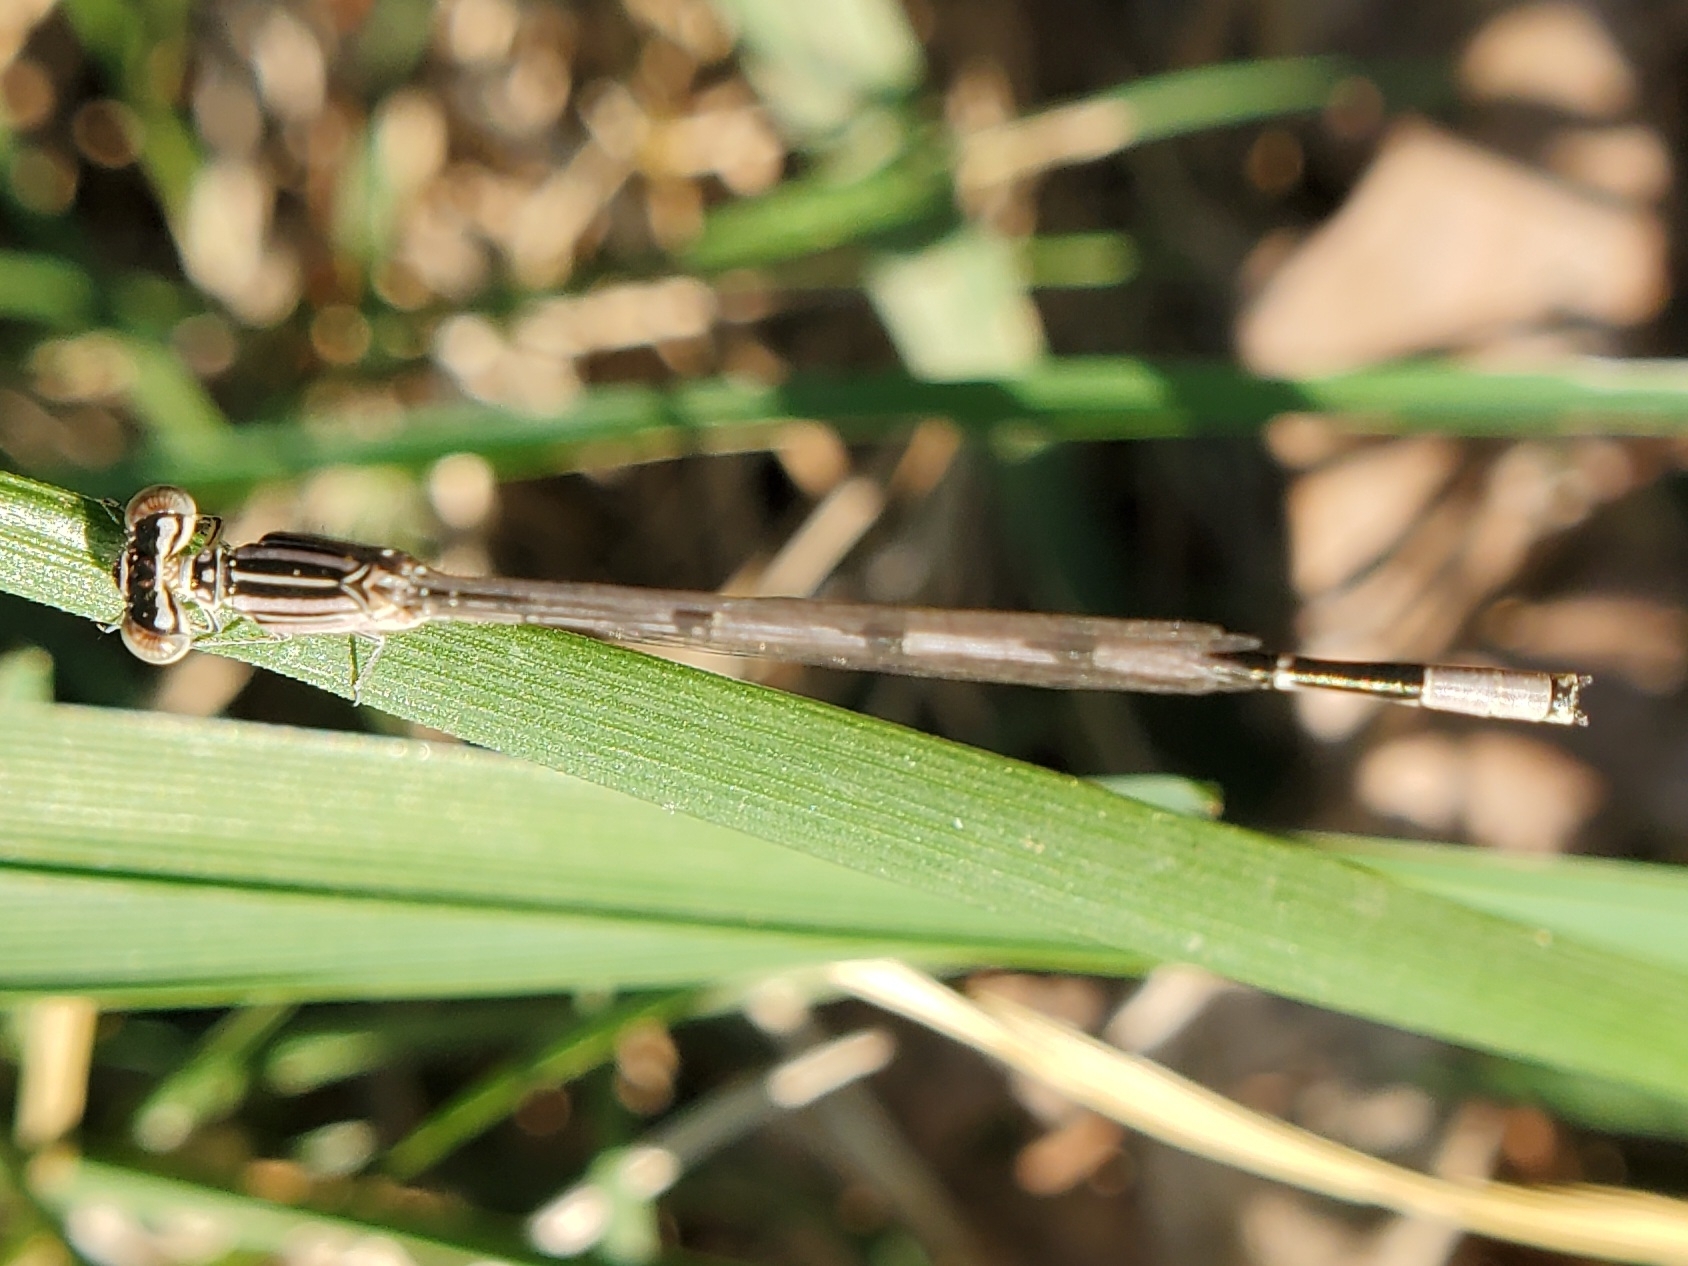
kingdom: Animalia
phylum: Arthropoda
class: Insecta
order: Odonata
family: Coenagrionidae
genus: Enallagma
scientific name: Enallagma basidens
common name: Double-striped bluet
